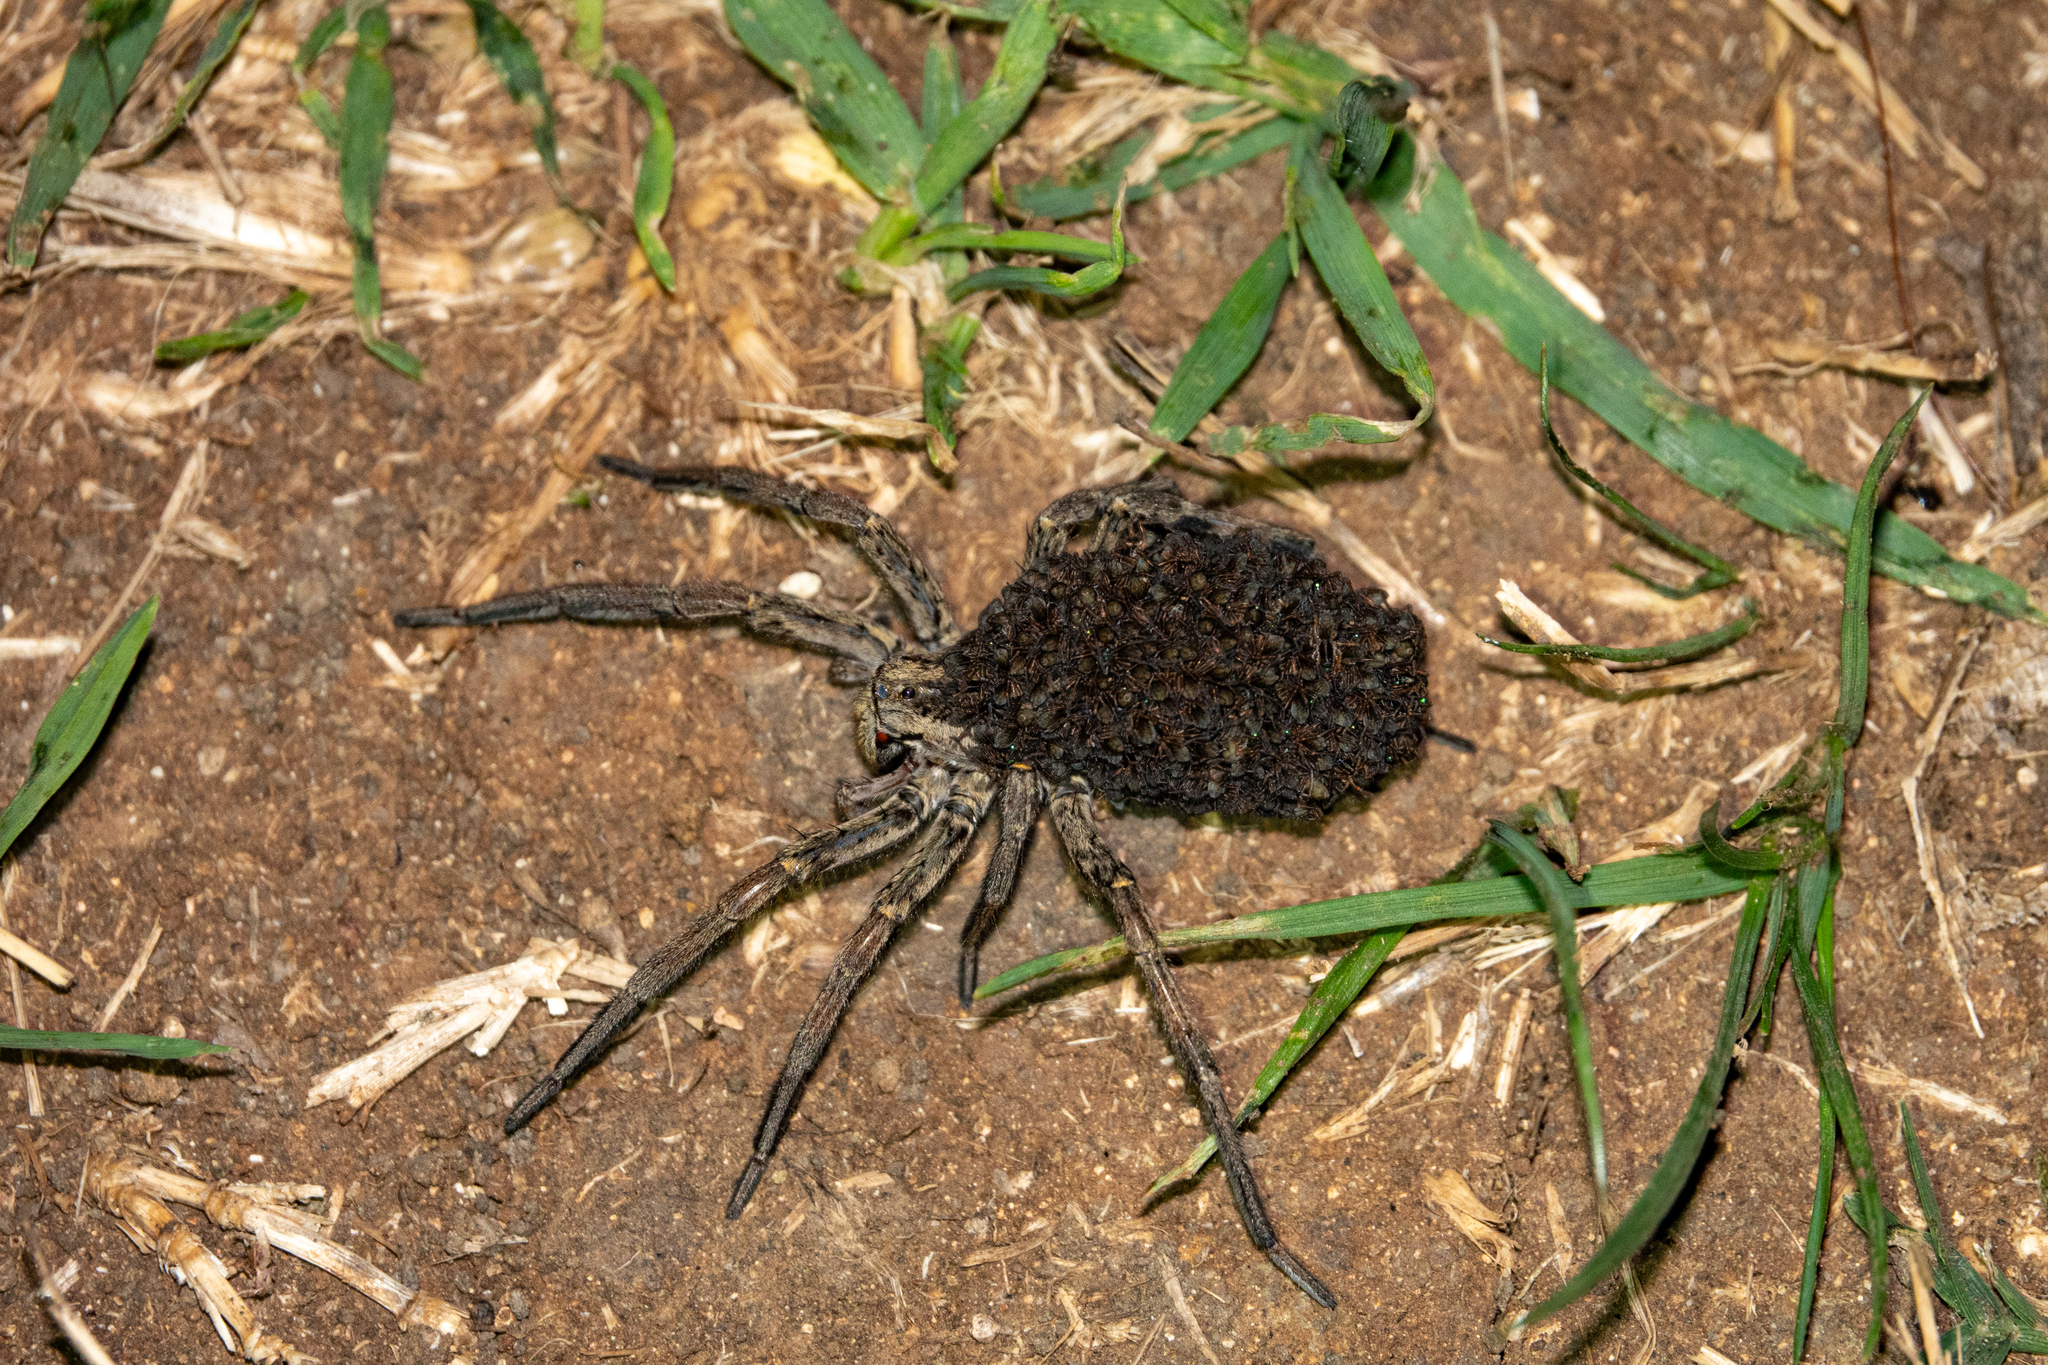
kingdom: Animalia
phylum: Arthropoda
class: Arachnida
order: Araneae
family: Lycosidae
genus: Hogna
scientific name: Hogna radiata
